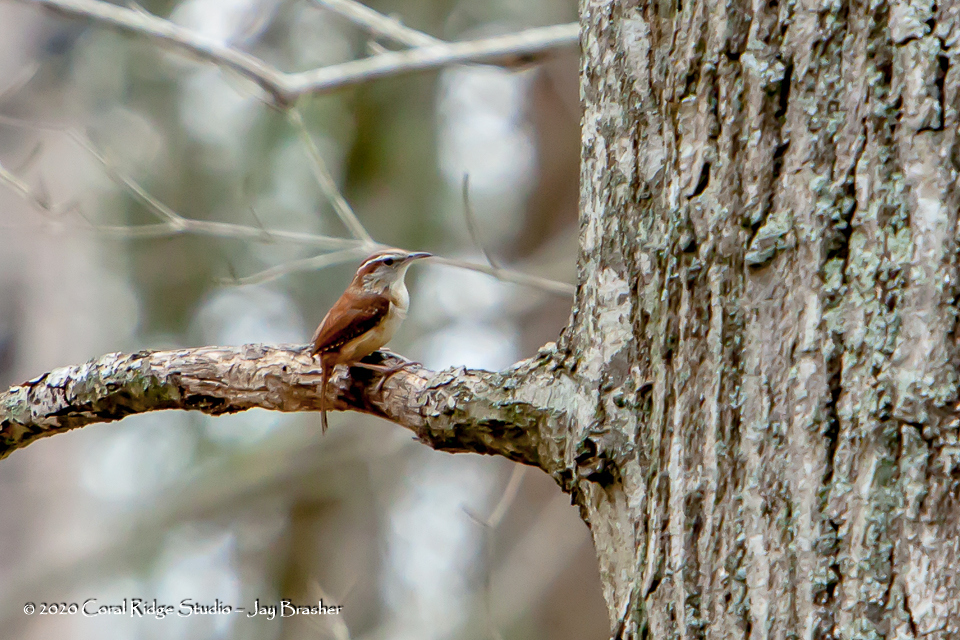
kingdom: Animalia
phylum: Chordata
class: Aves
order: Passeriformes
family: Troglodytidae
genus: Thryothorus
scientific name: Thryothorus ludovicianus
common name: Carolina wren
